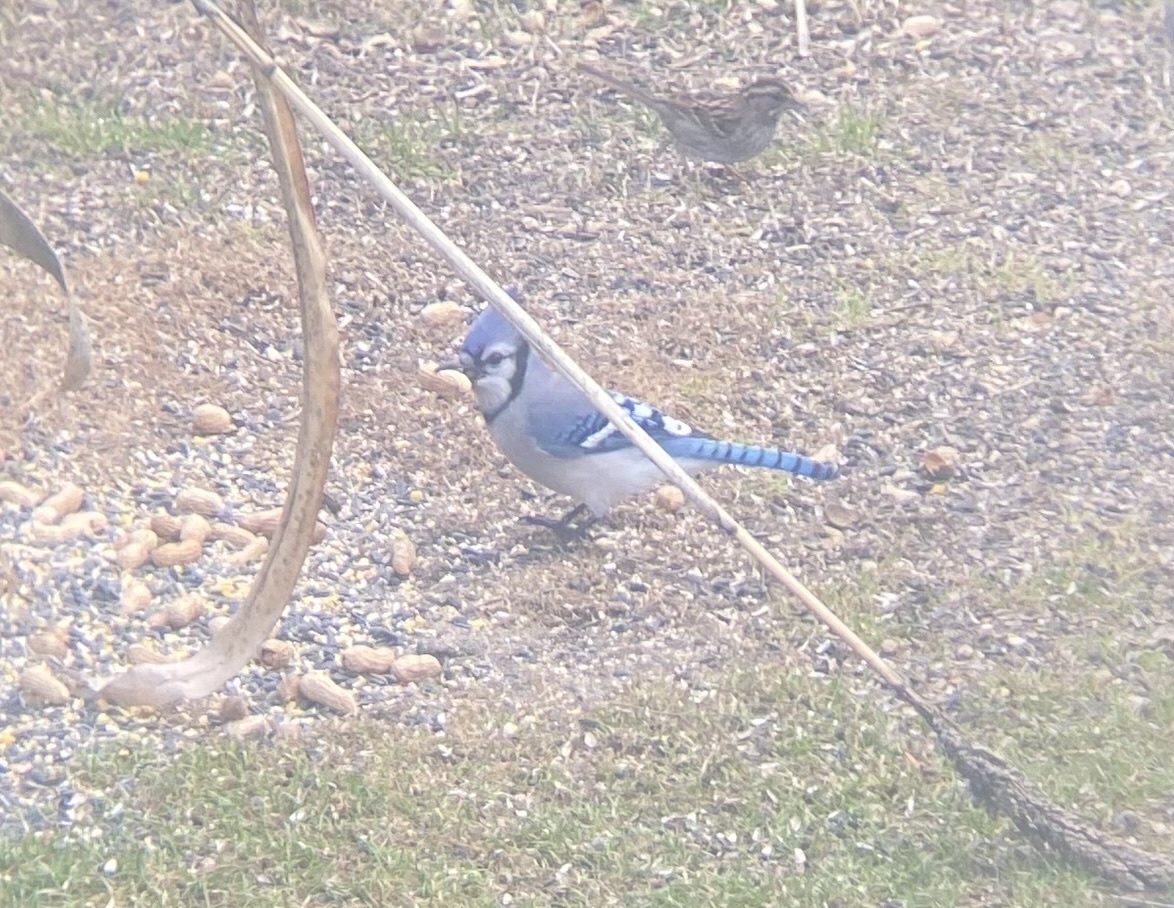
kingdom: Animalia
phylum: Chordata
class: Aves
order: Passeriformes
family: Corvidae
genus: Cyanocitta
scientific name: Cyanocitta cristata
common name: Blue jay
